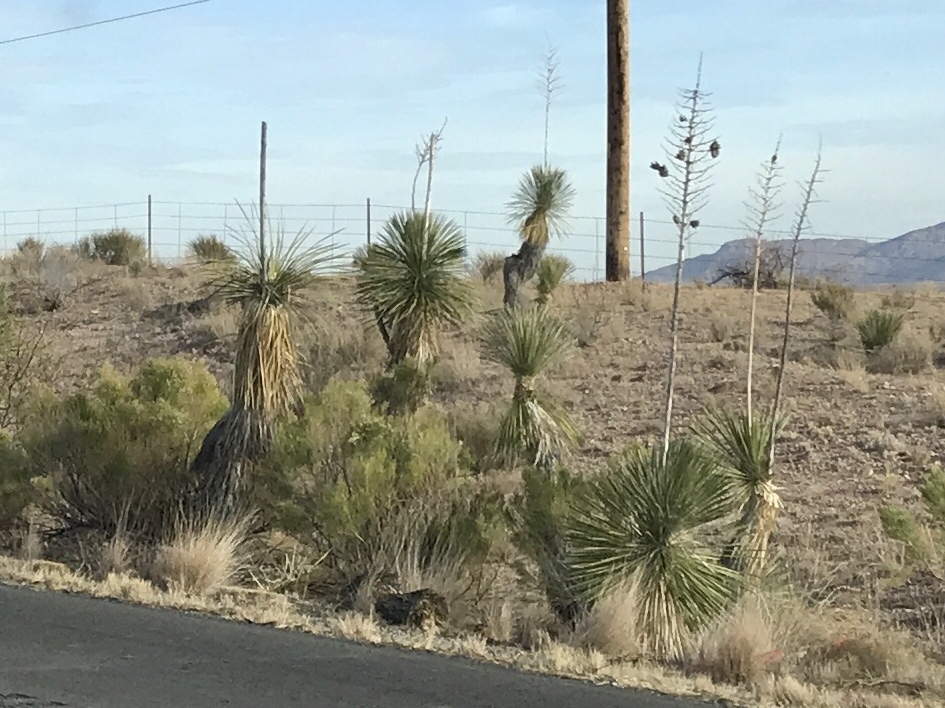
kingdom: Plantae
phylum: Tracheophyta
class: Liliopsida
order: Asparagales
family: Asparagaceae
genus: Yucca
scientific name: Yucca elata
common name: Palmella
